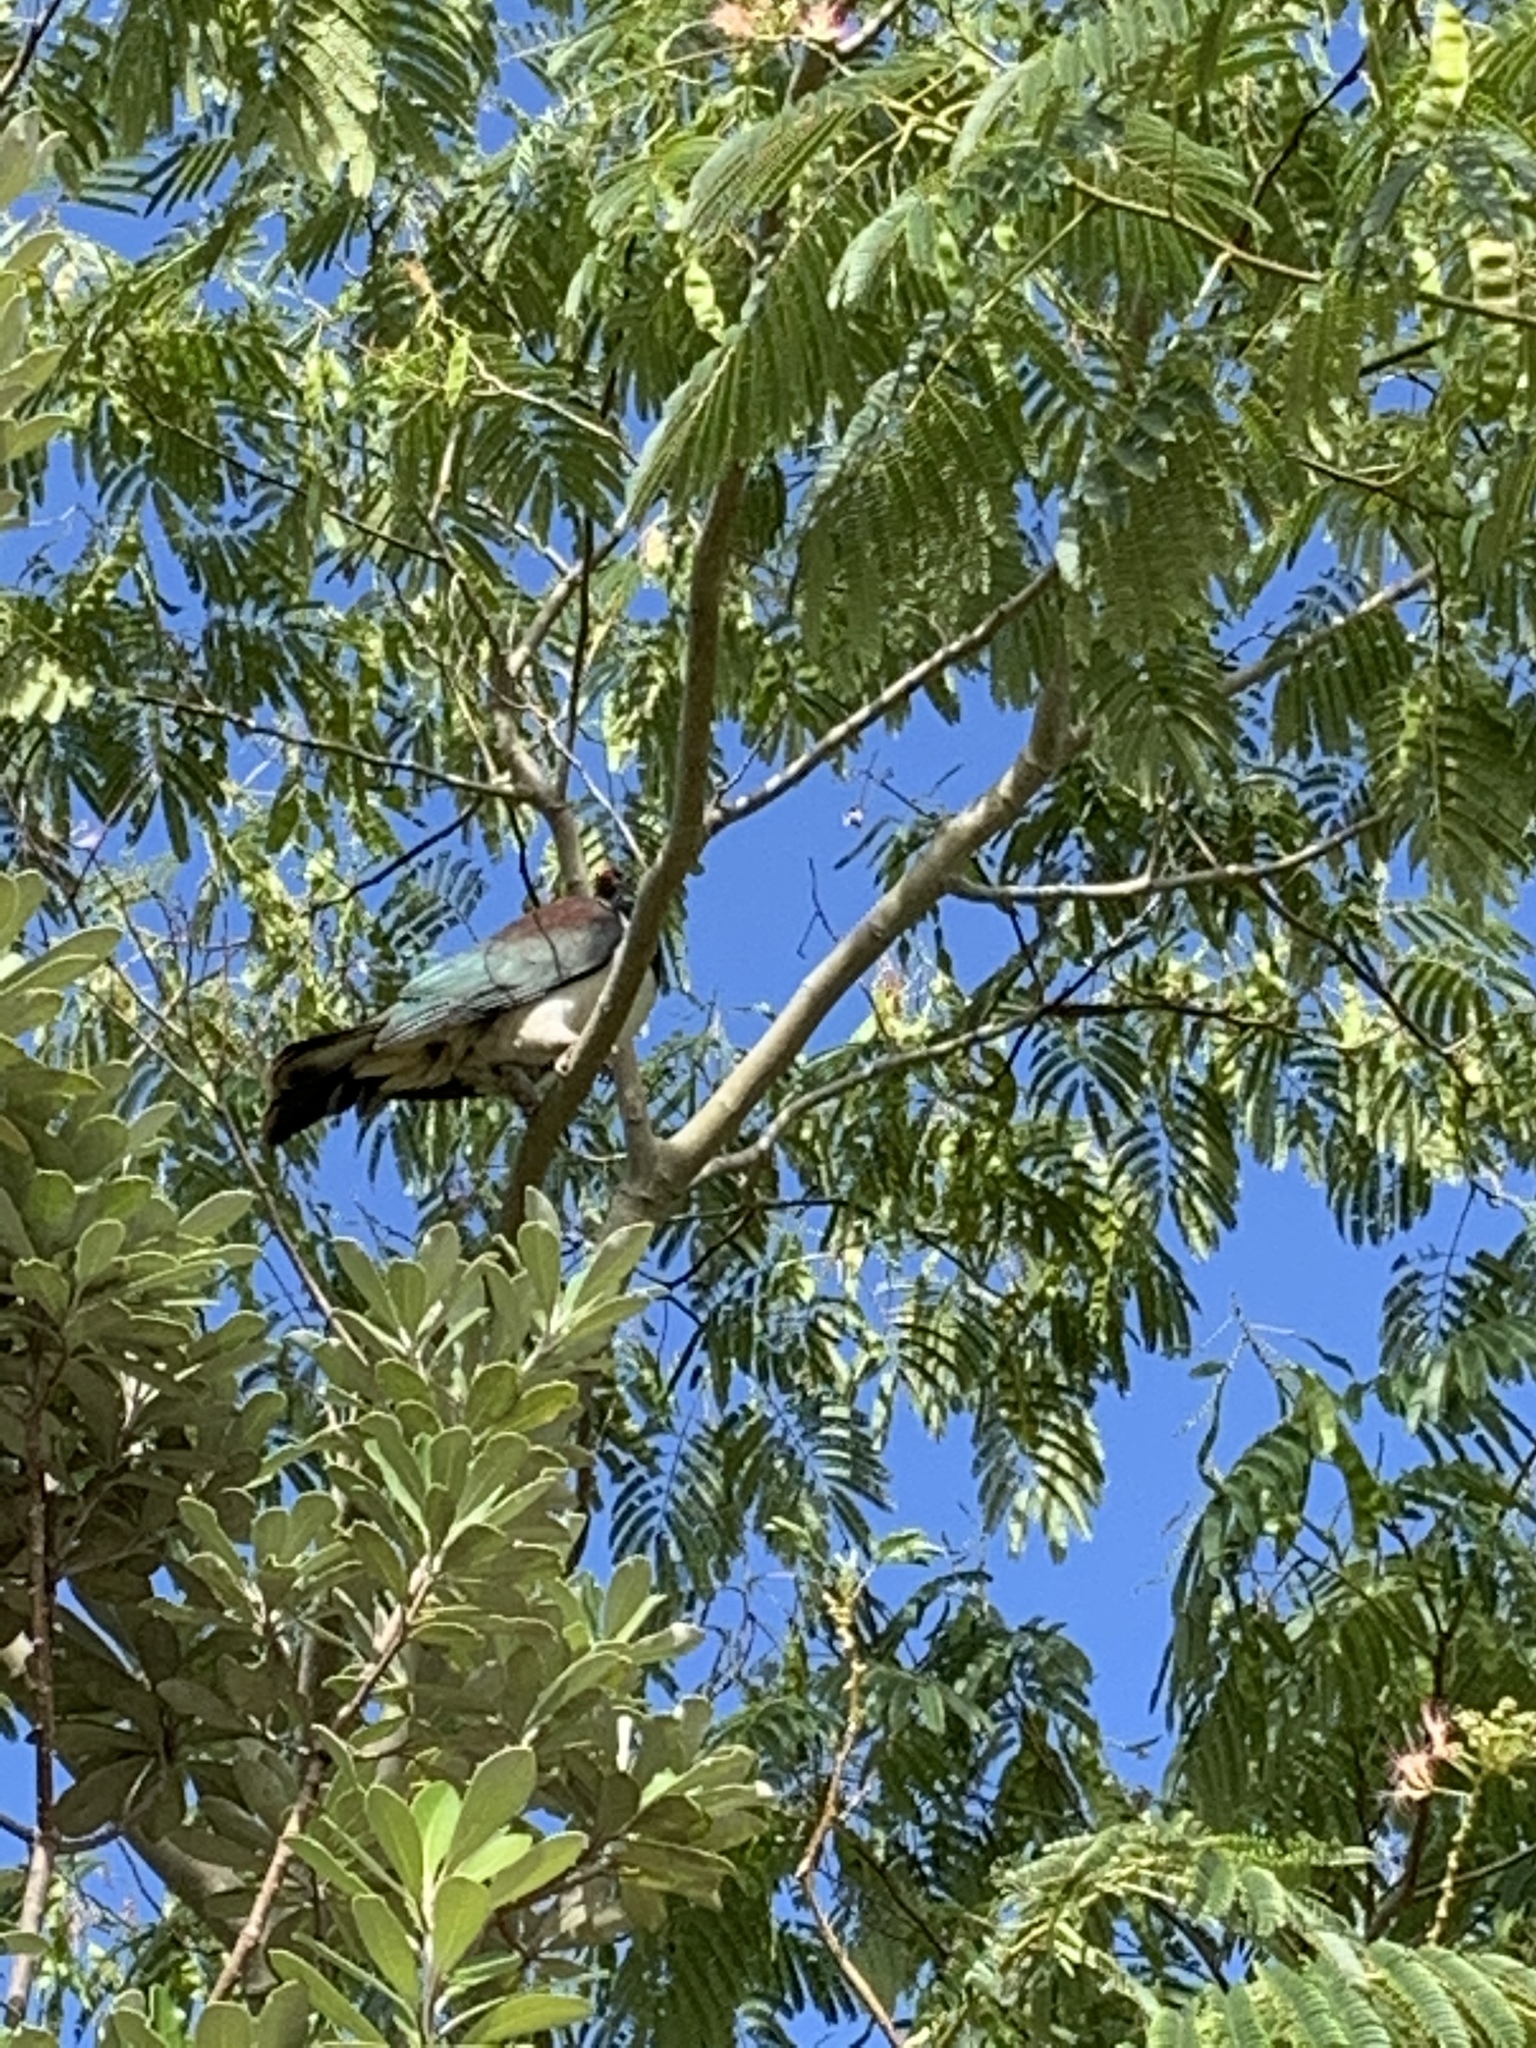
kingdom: Animalia
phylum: Chordata
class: Aves
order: Columbiformes
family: Columbidae
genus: Hemiphaga
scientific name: Hemiphaga novaeseelandiae
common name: New zealand pigeon
